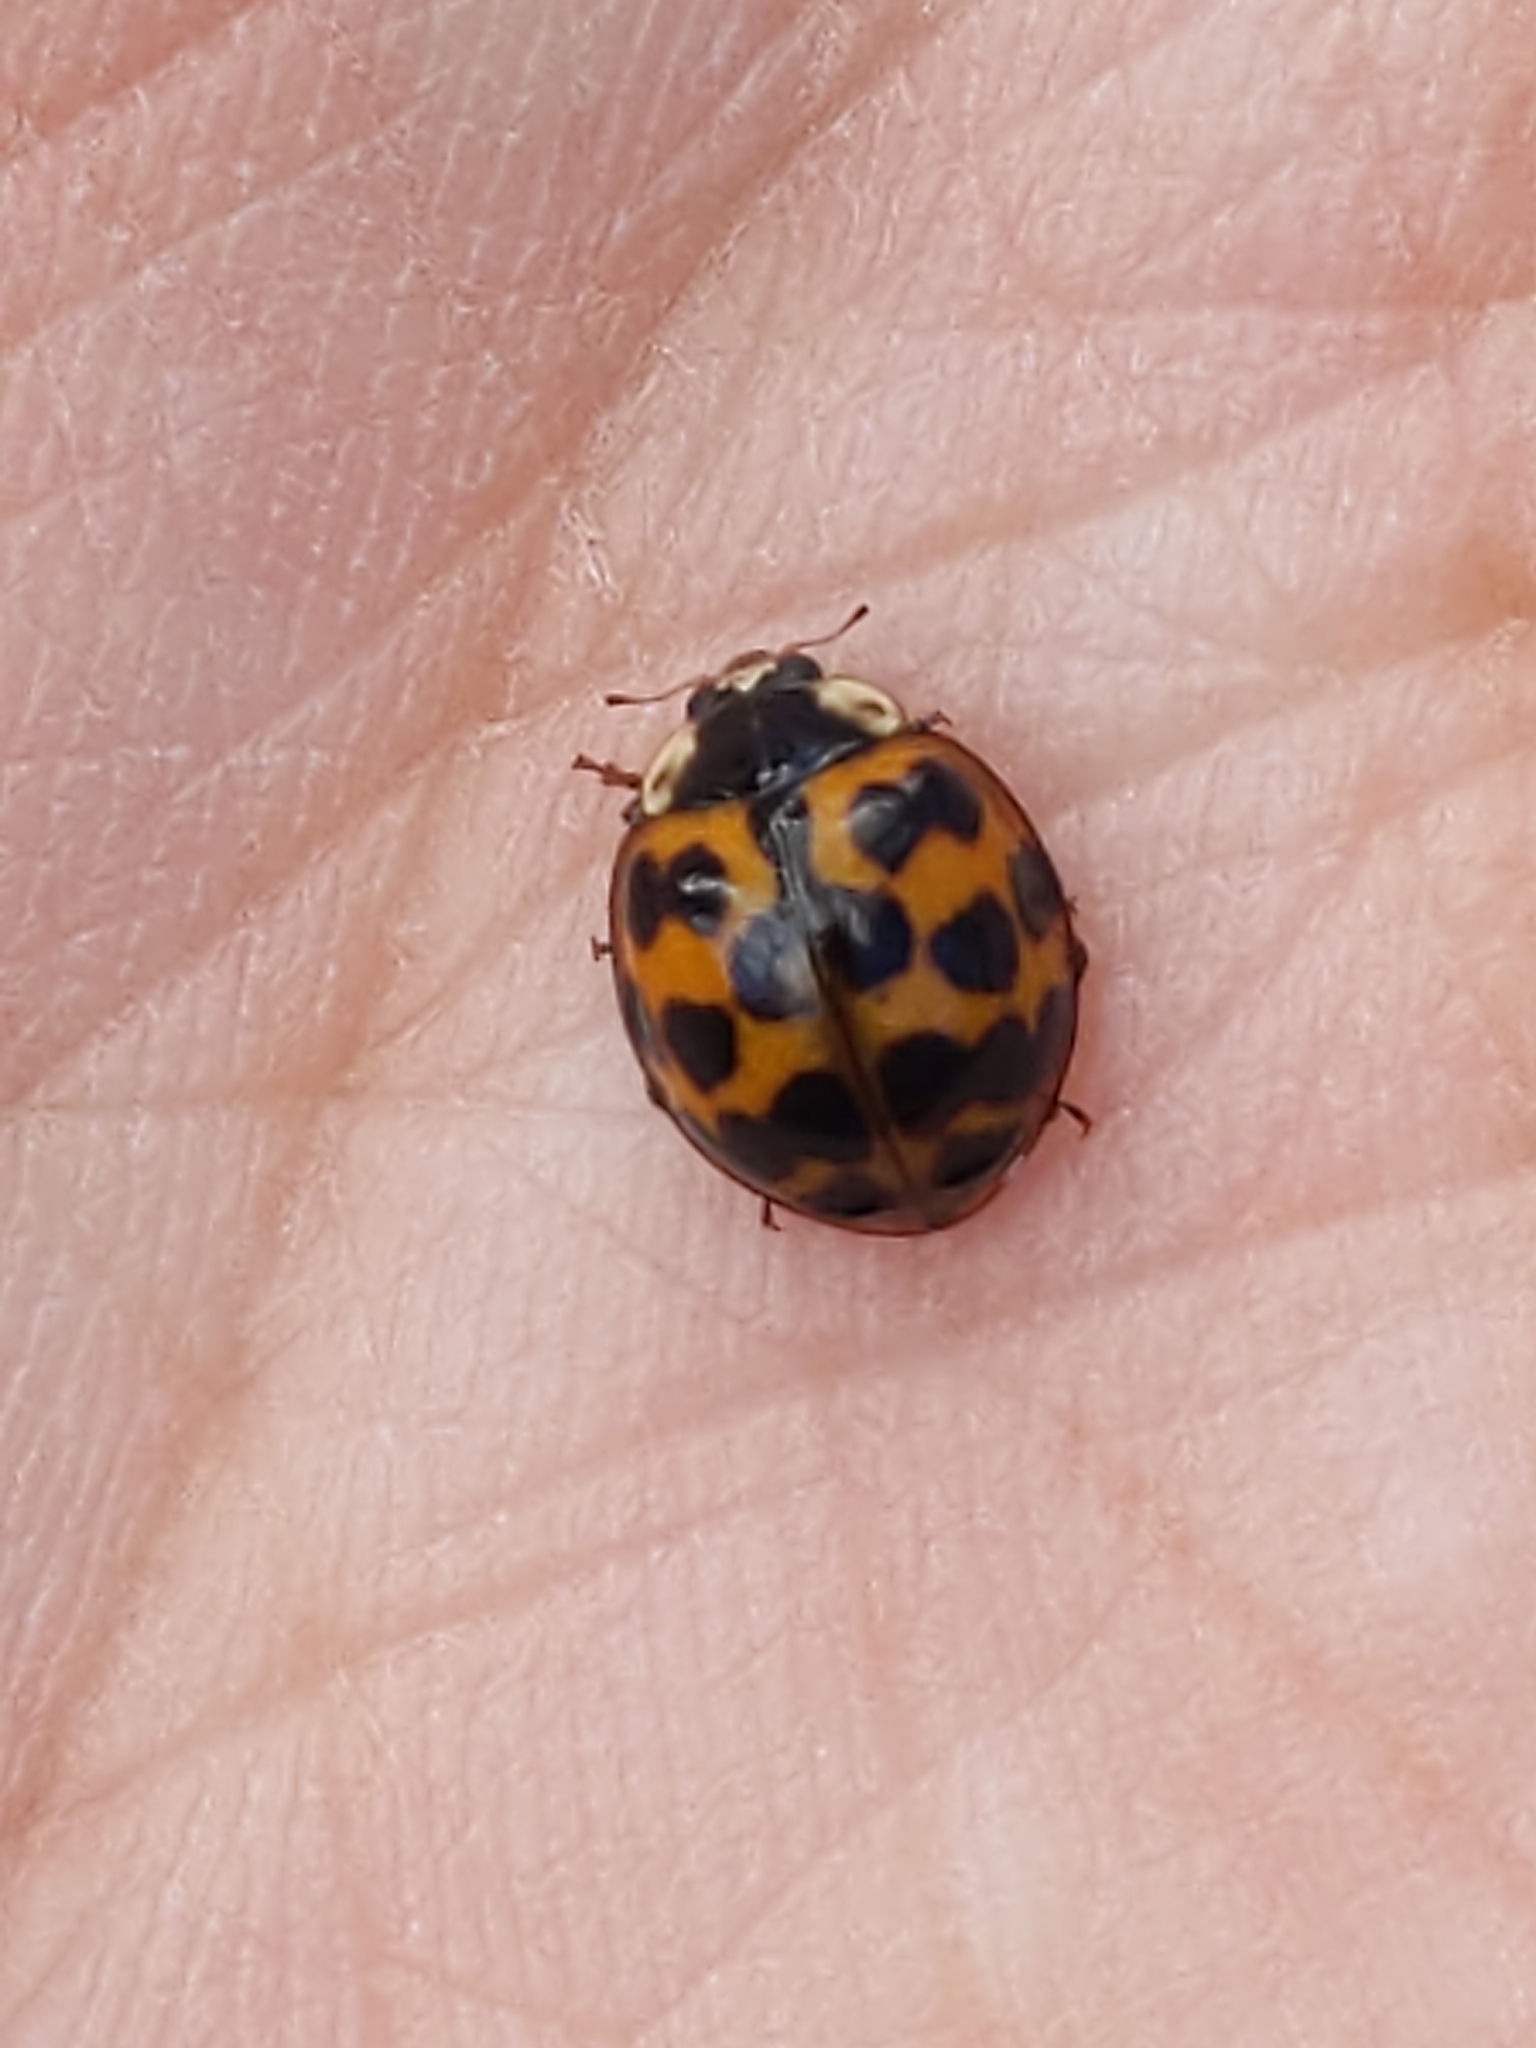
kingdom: Animalia
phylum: Arthropoda
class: Insecta
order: Coleoptera
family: Coccinellidae
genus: Harmonia
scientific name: Harmonia axyridis
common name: Harlequin ladybird
